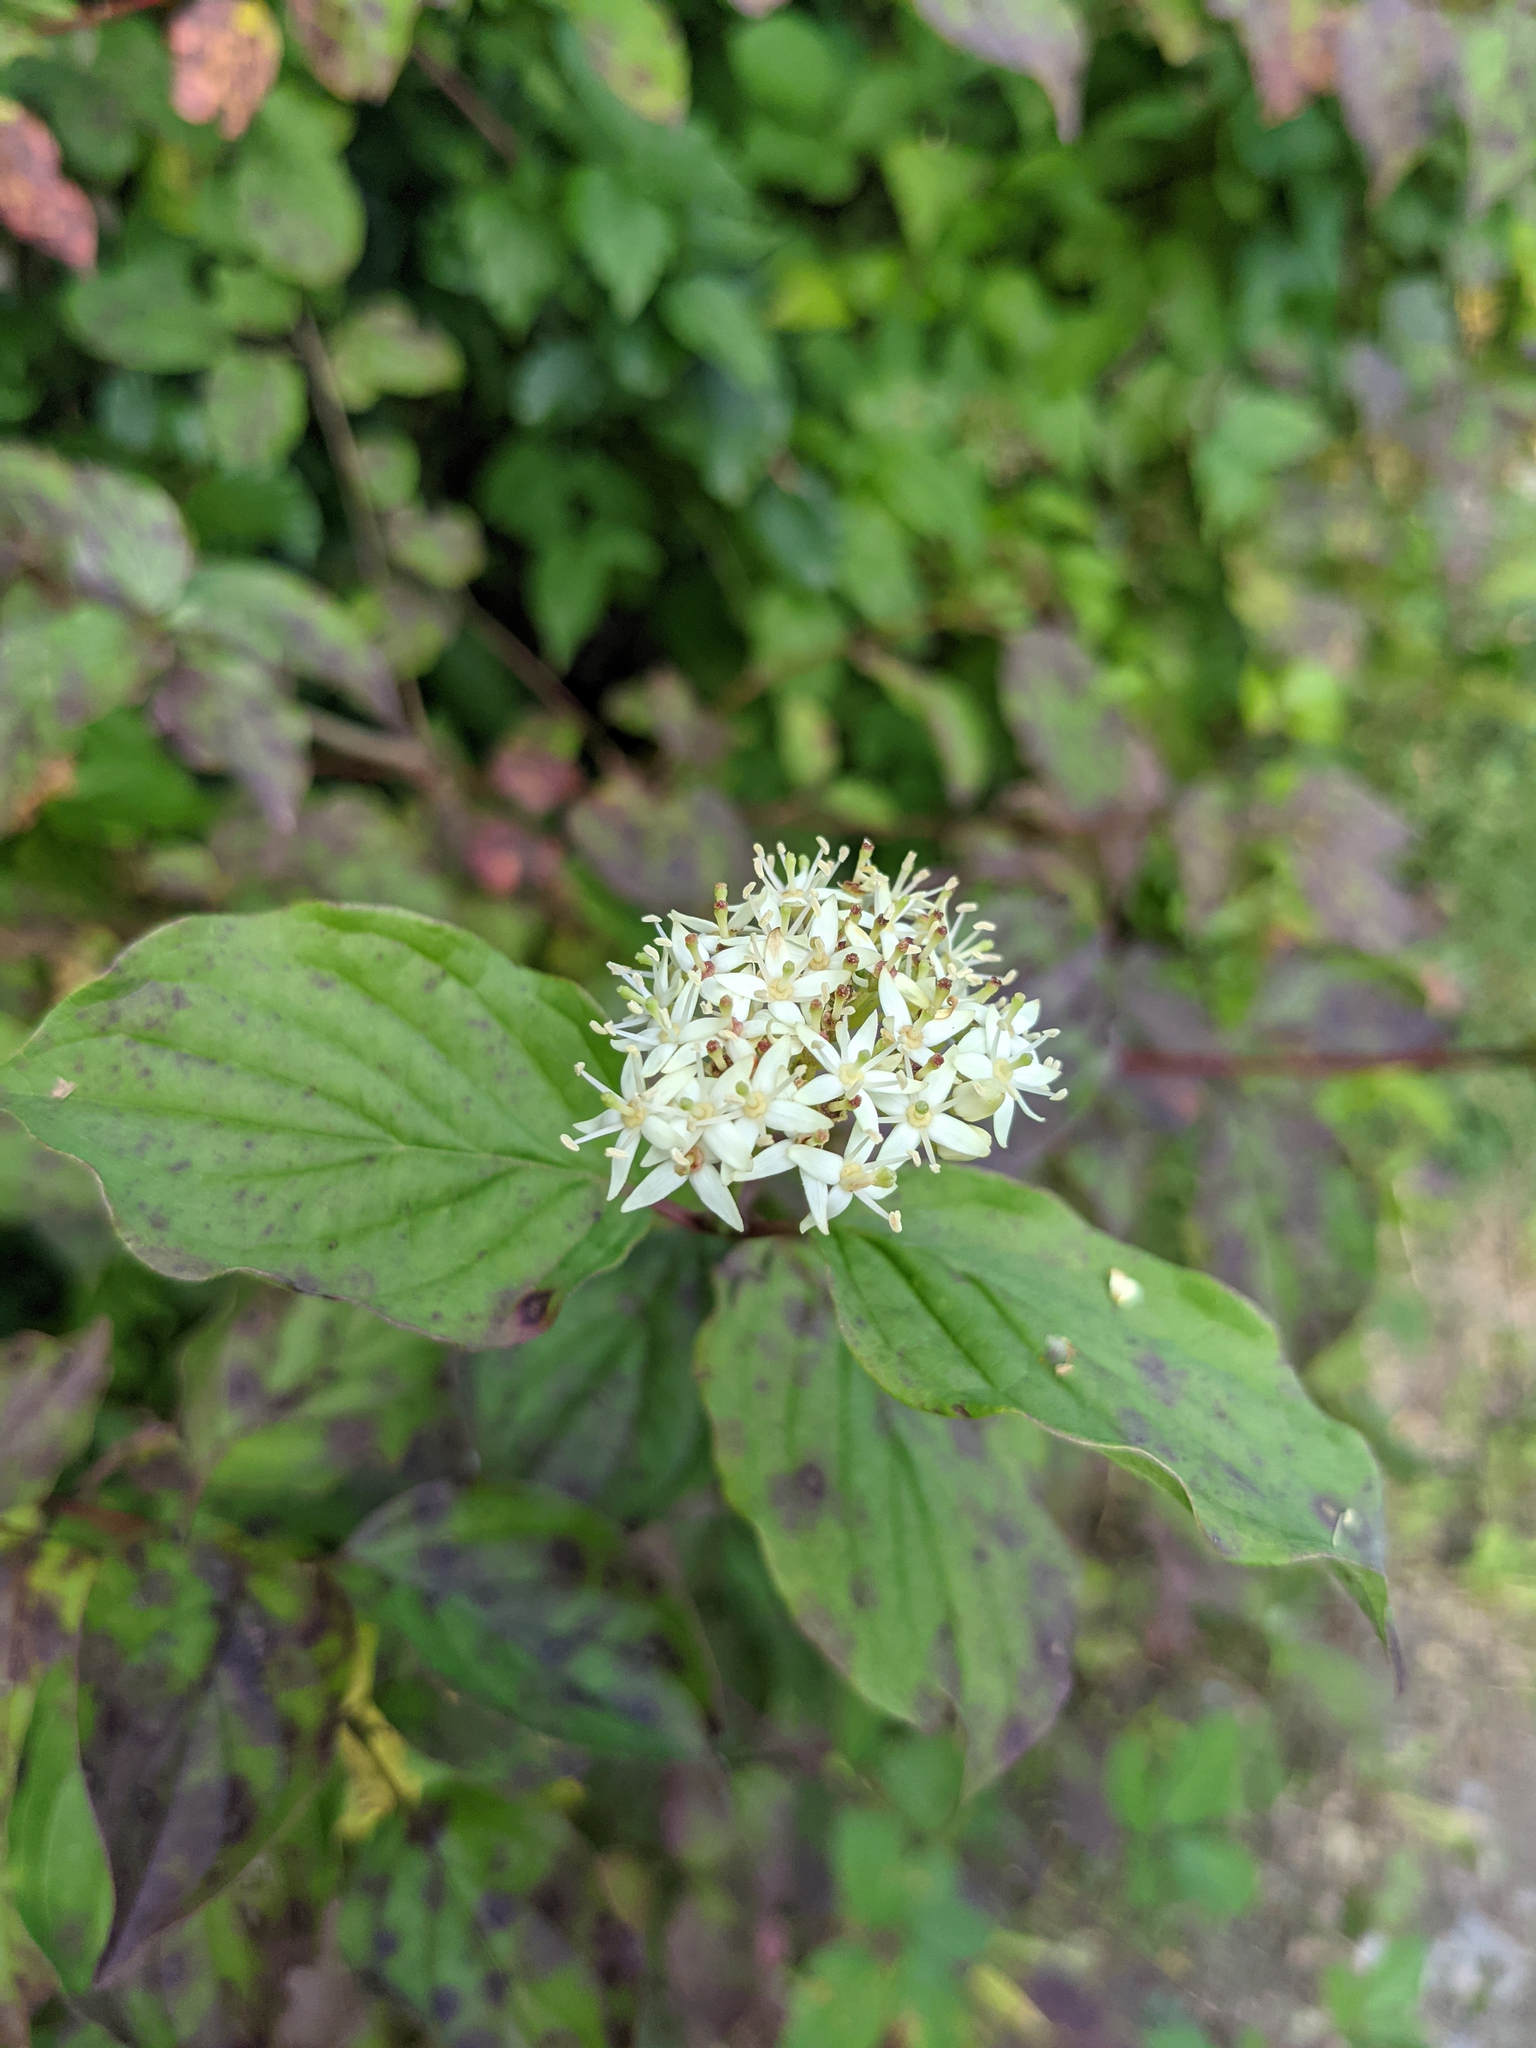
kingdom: Plantae
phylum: Tracheophyta
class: Magnoliopsida
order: Cornales
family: Cornaceae
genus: Cornus
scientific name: Cornus sanguinea
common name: Dogwood
